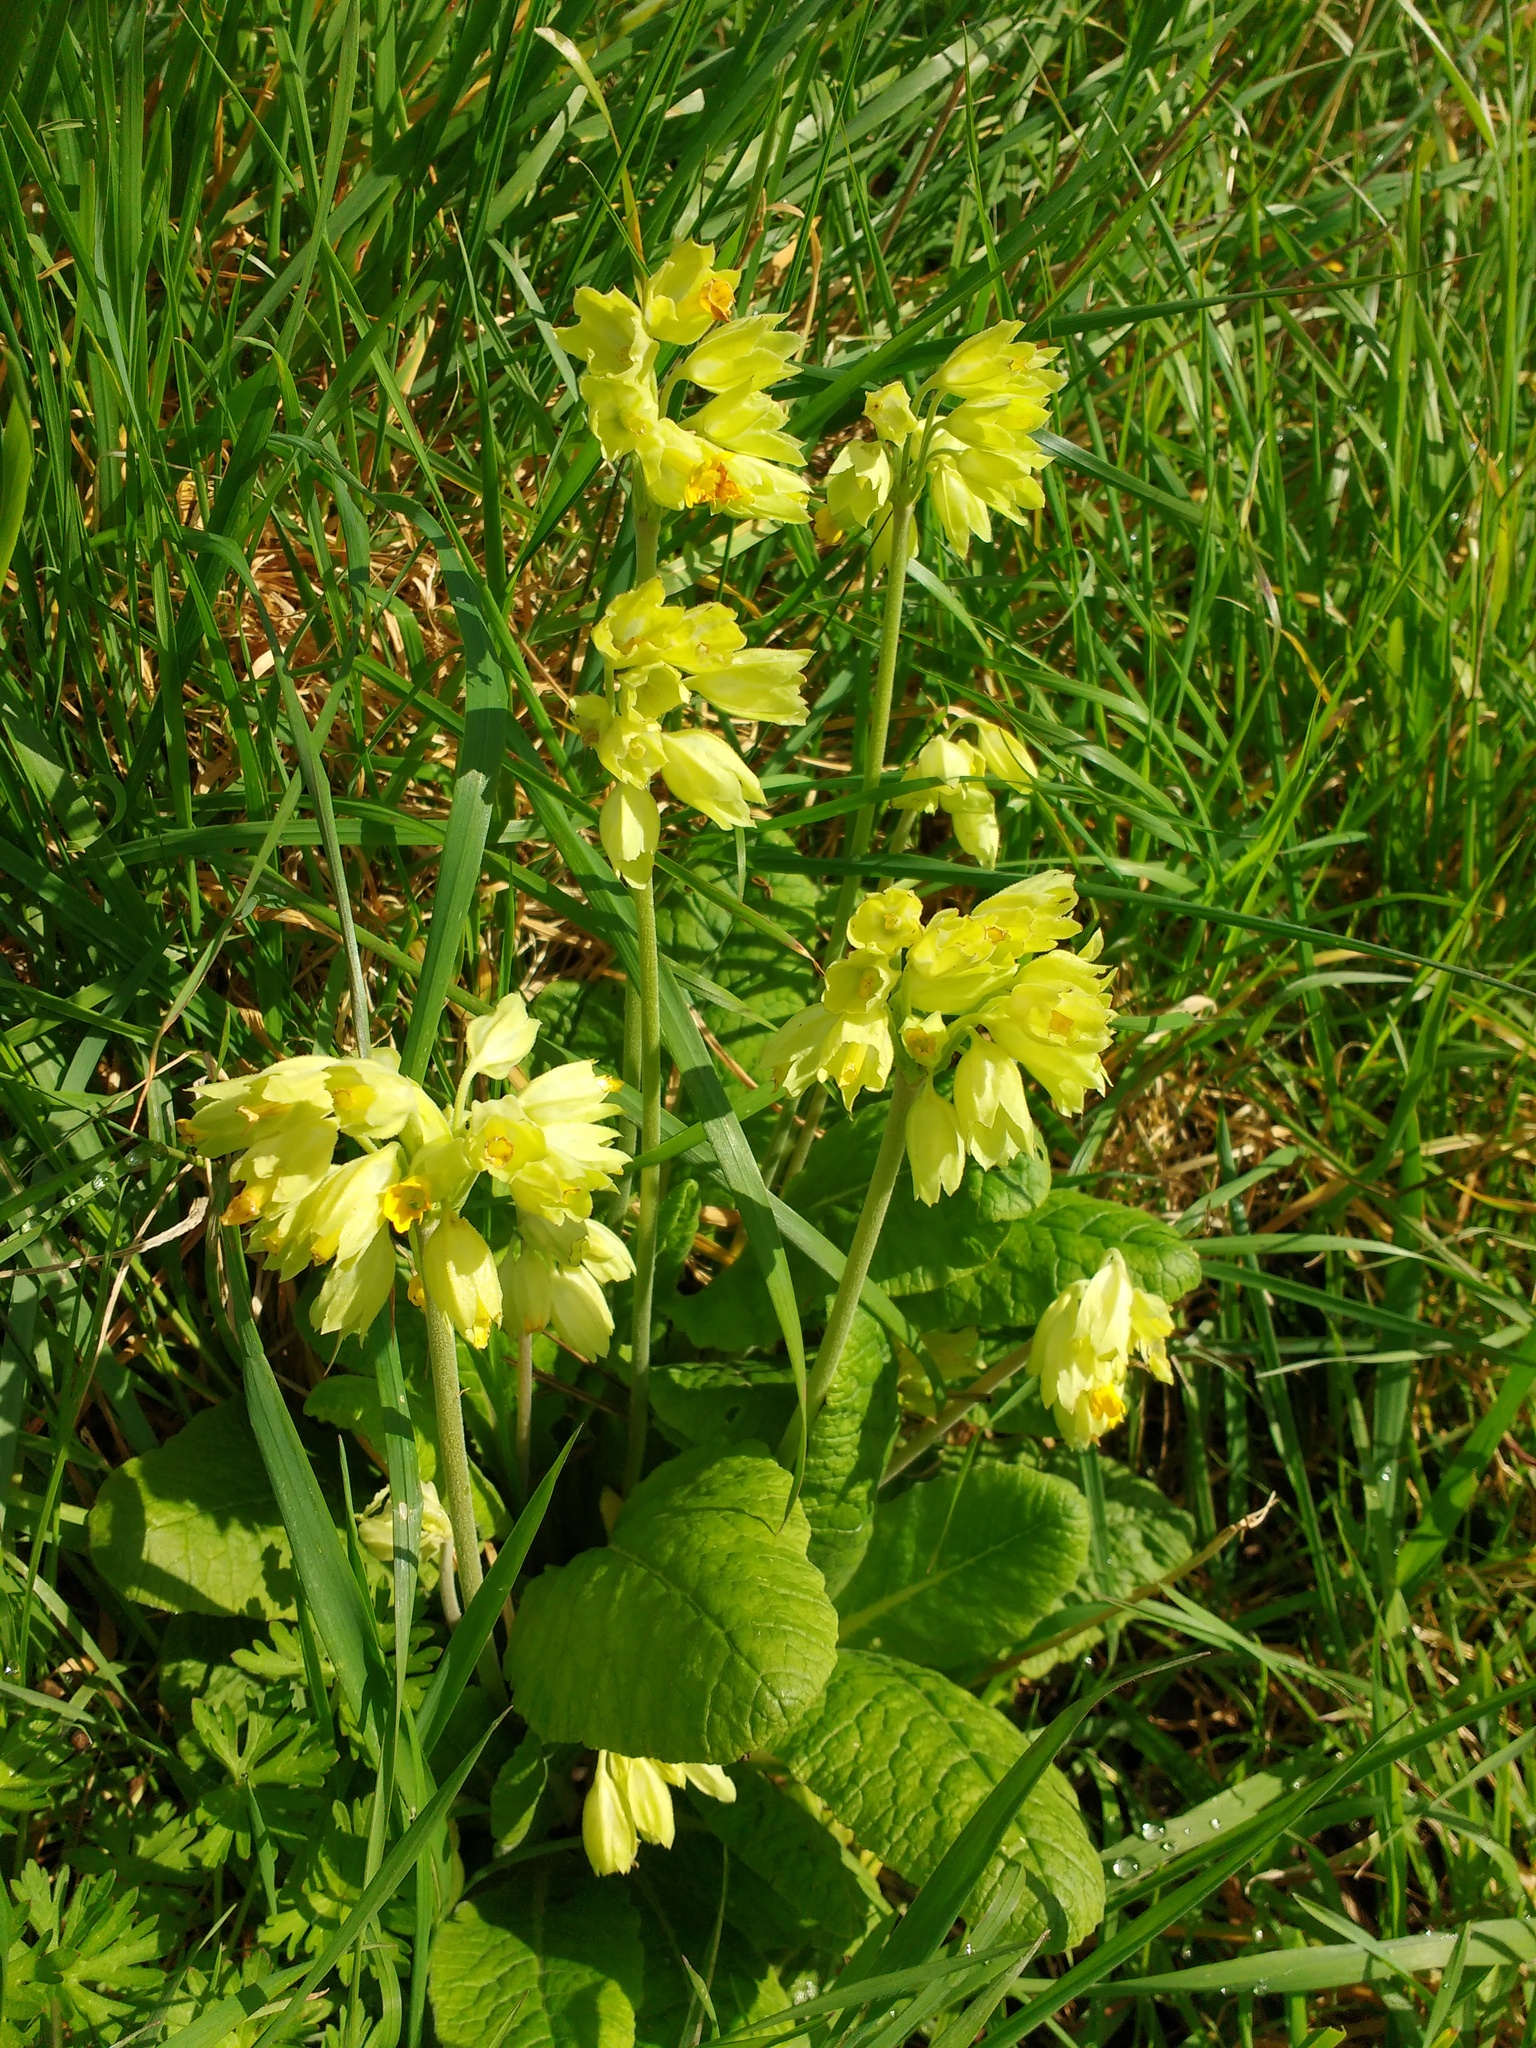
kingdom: Plantae
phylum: Tracheophyta
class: Magnoliopsida
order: Ericales
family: Primulaceae
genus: Primula
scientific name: Primula veris
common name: Cowslip
